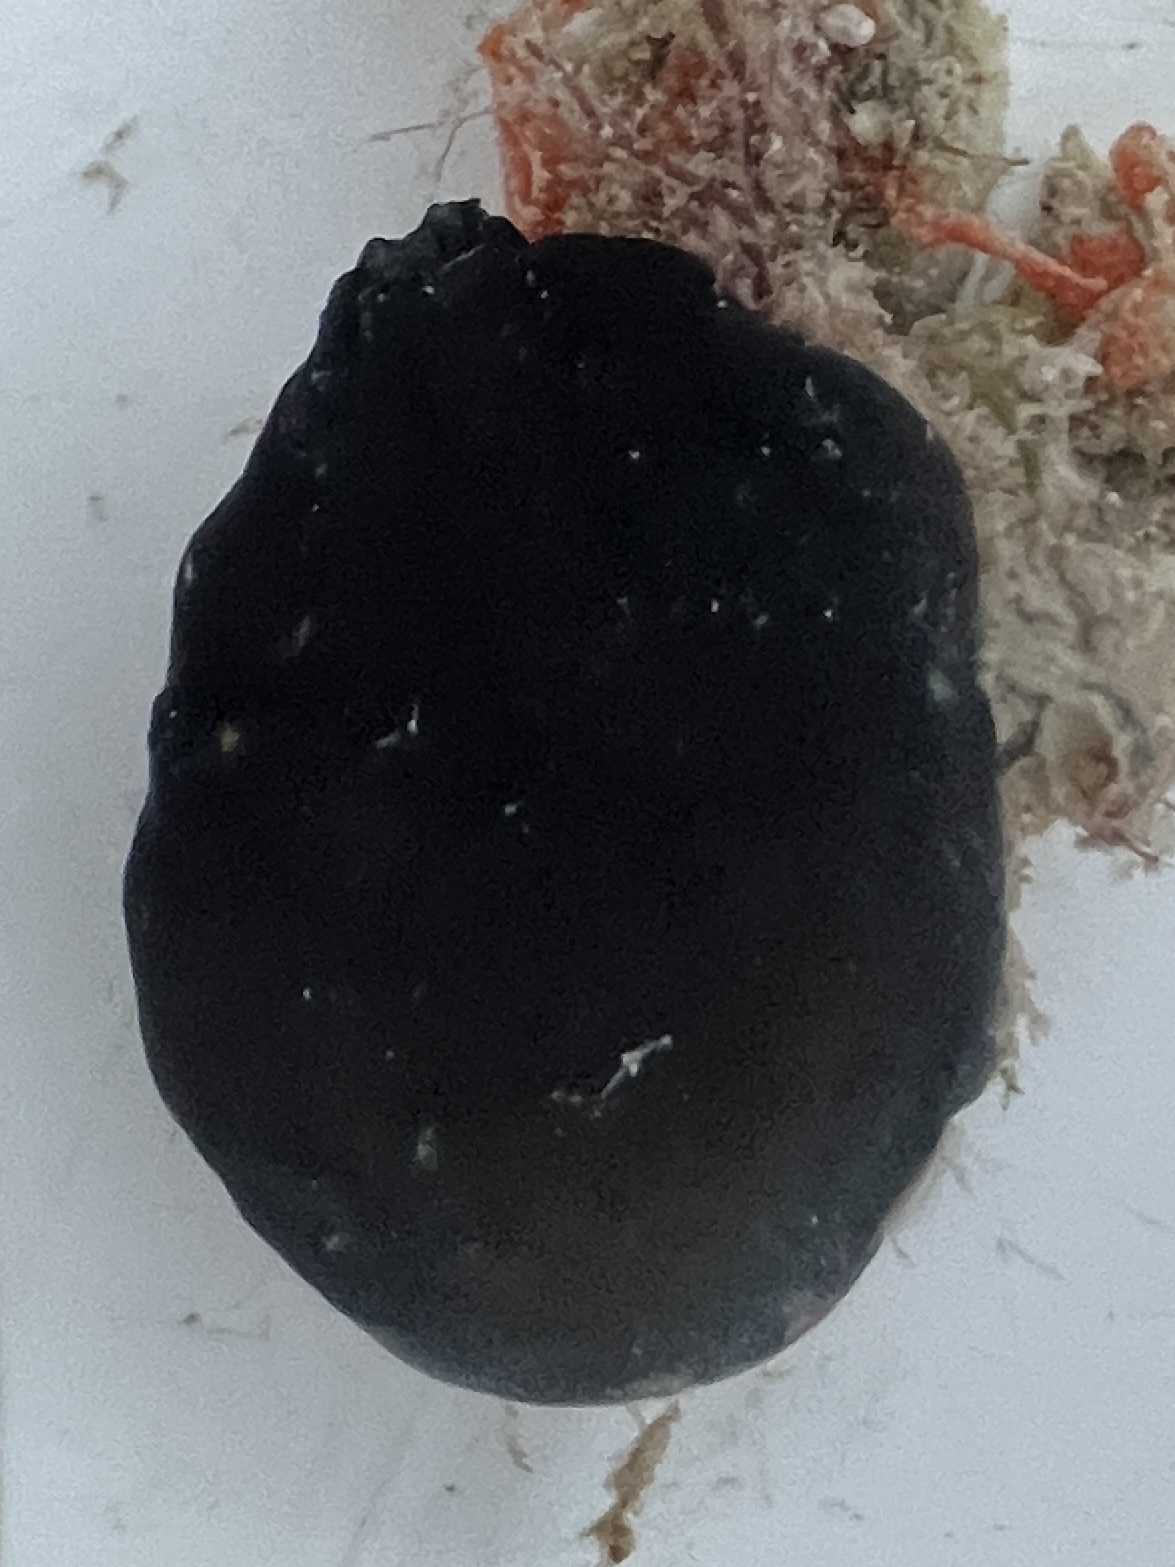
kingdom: Animalia
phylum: Chordata
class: Ascidiacea
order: Aplousobranchia
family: Polycitoridae
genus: Eudistoma
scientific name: Eudistoma obscuratum
